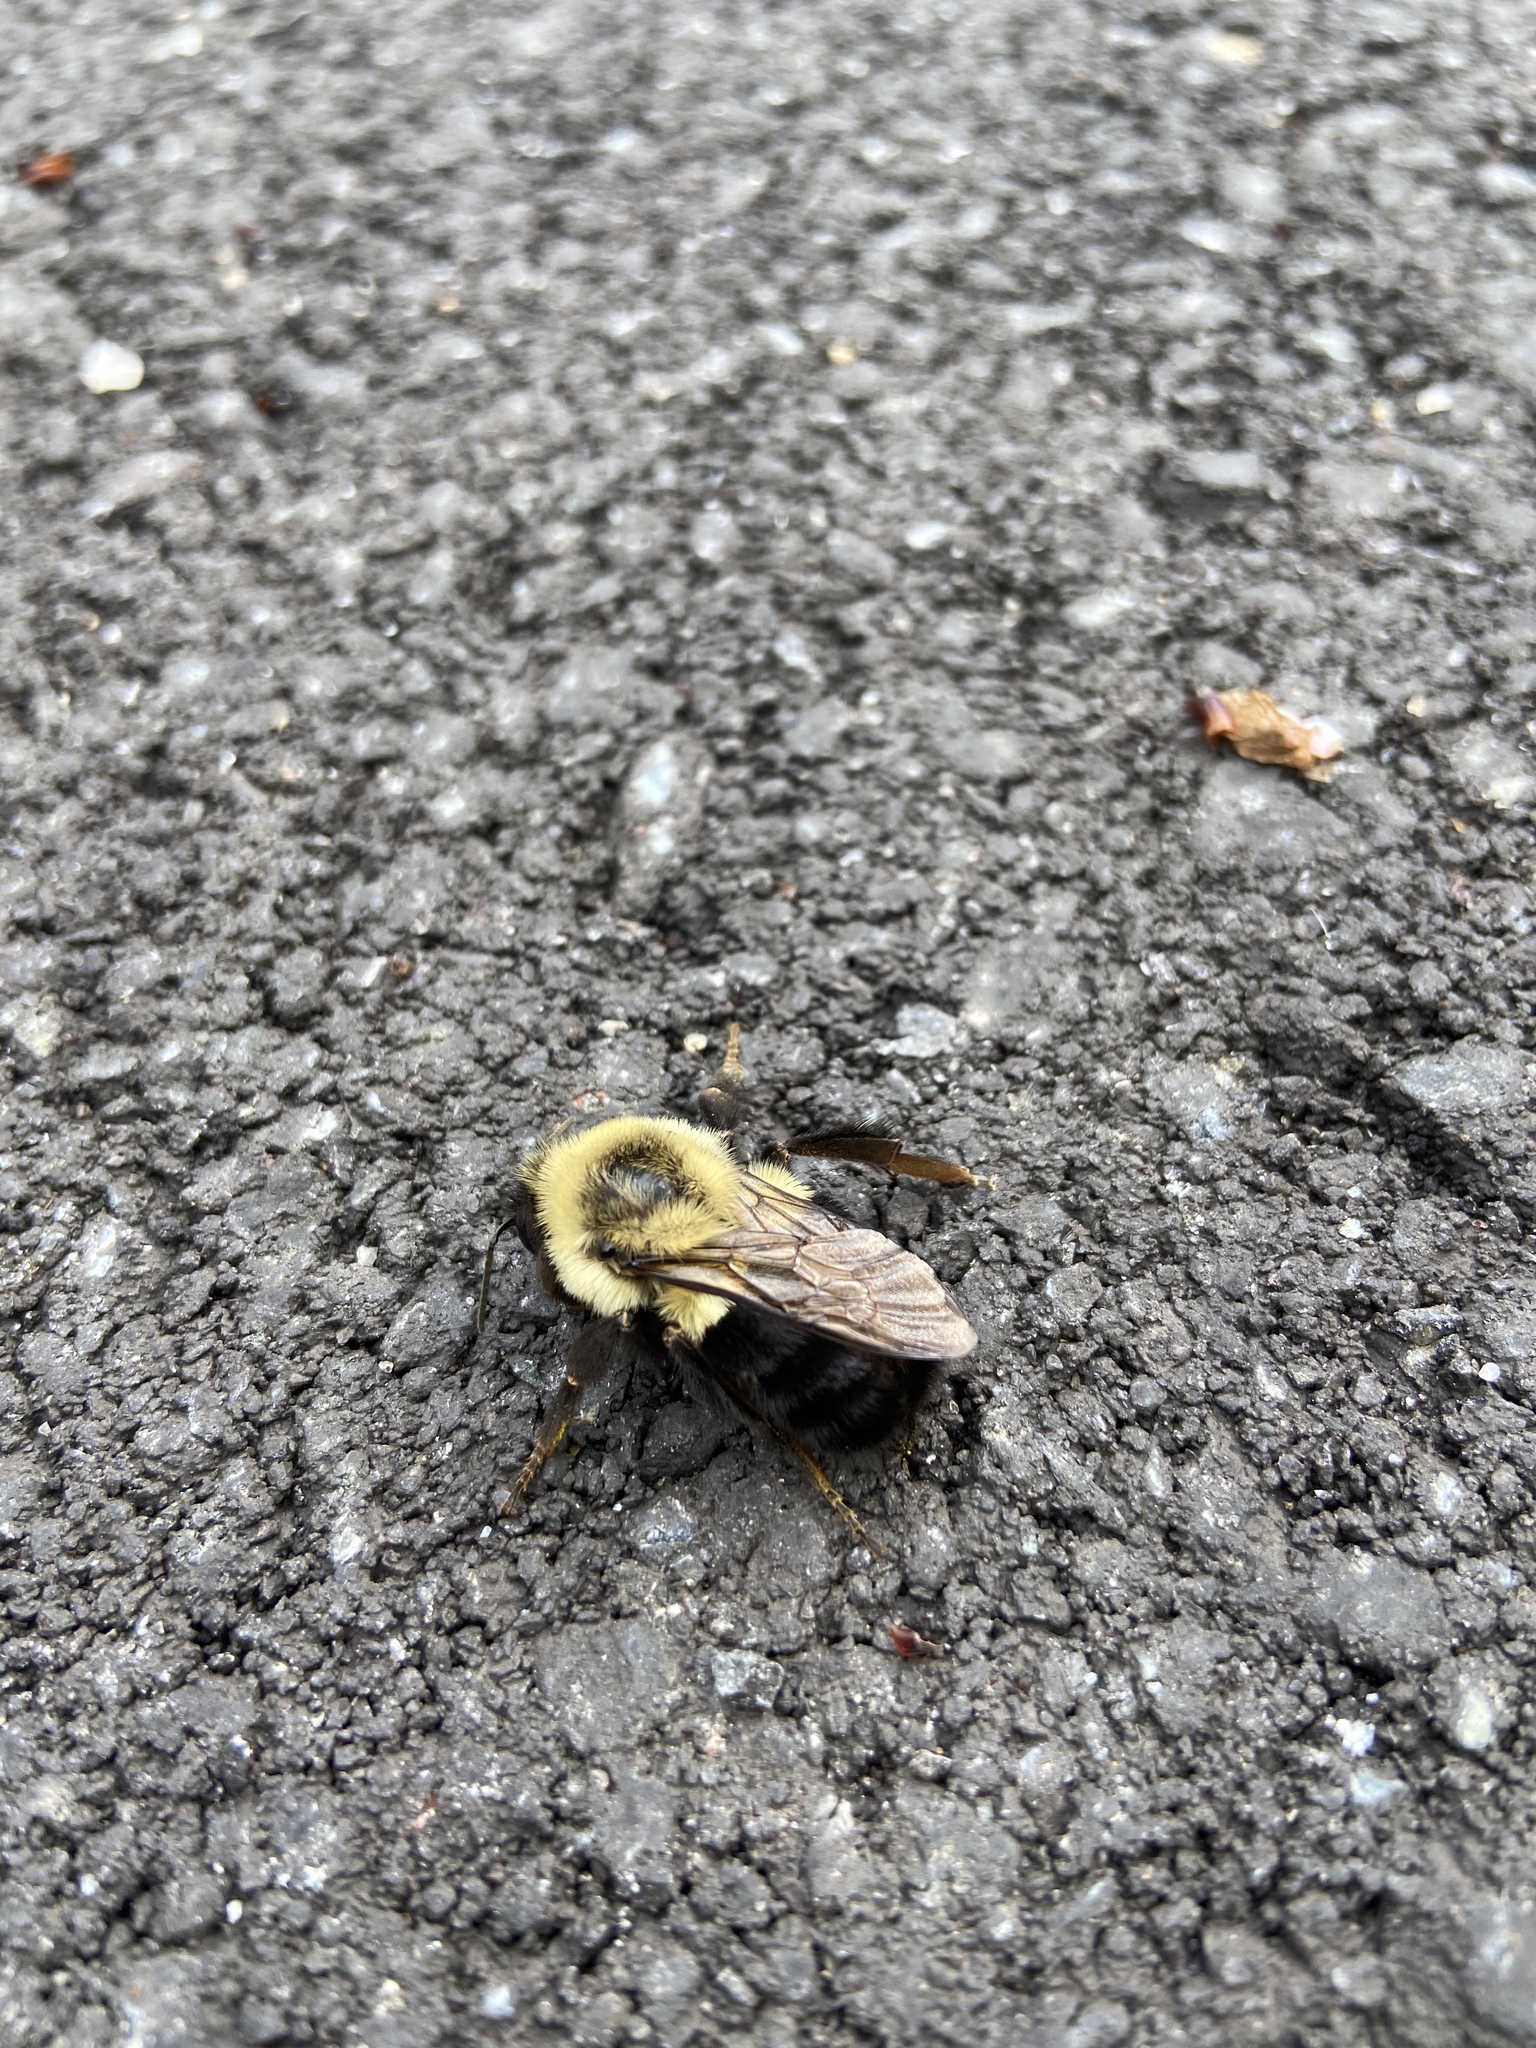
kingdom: Animalia
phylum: Arthropoda
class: Insecta
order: Hymenoptera
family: Apidae
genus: Bombus
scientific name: Bombus impatiens
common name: Common eastern bumble bee
